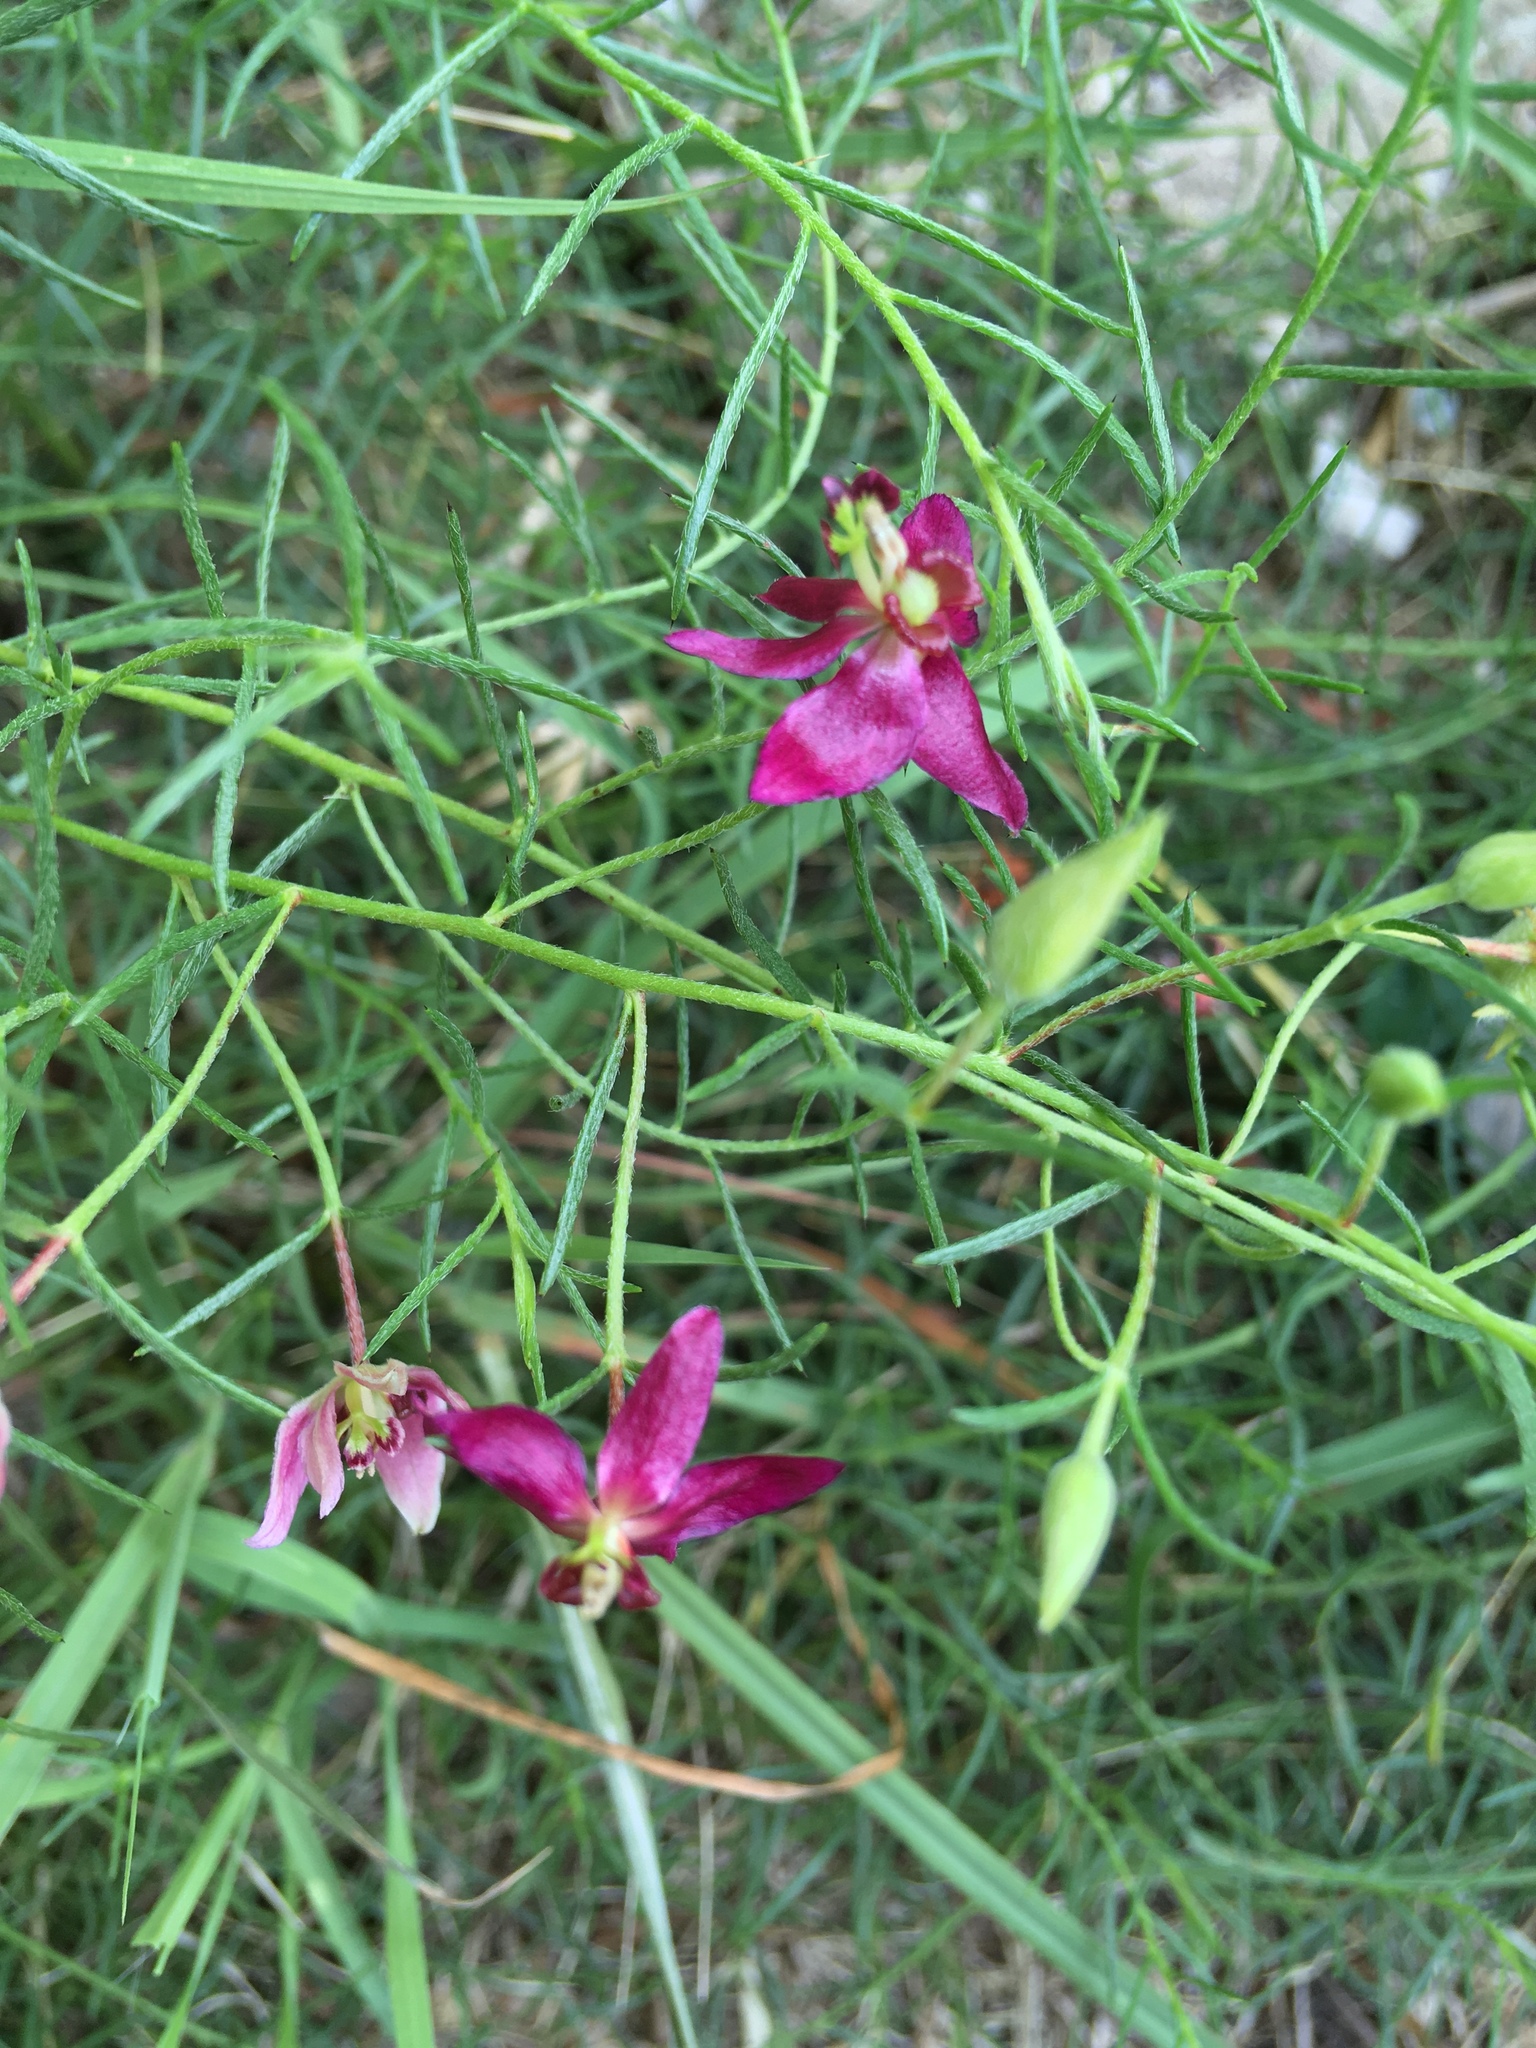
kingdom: Plantae
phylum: Tracheophyta
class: Magnoliopsida
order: Zygophyllales
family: Krameriaceae
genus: Krameria
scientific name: Krameria lanceolata
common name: Ratany
